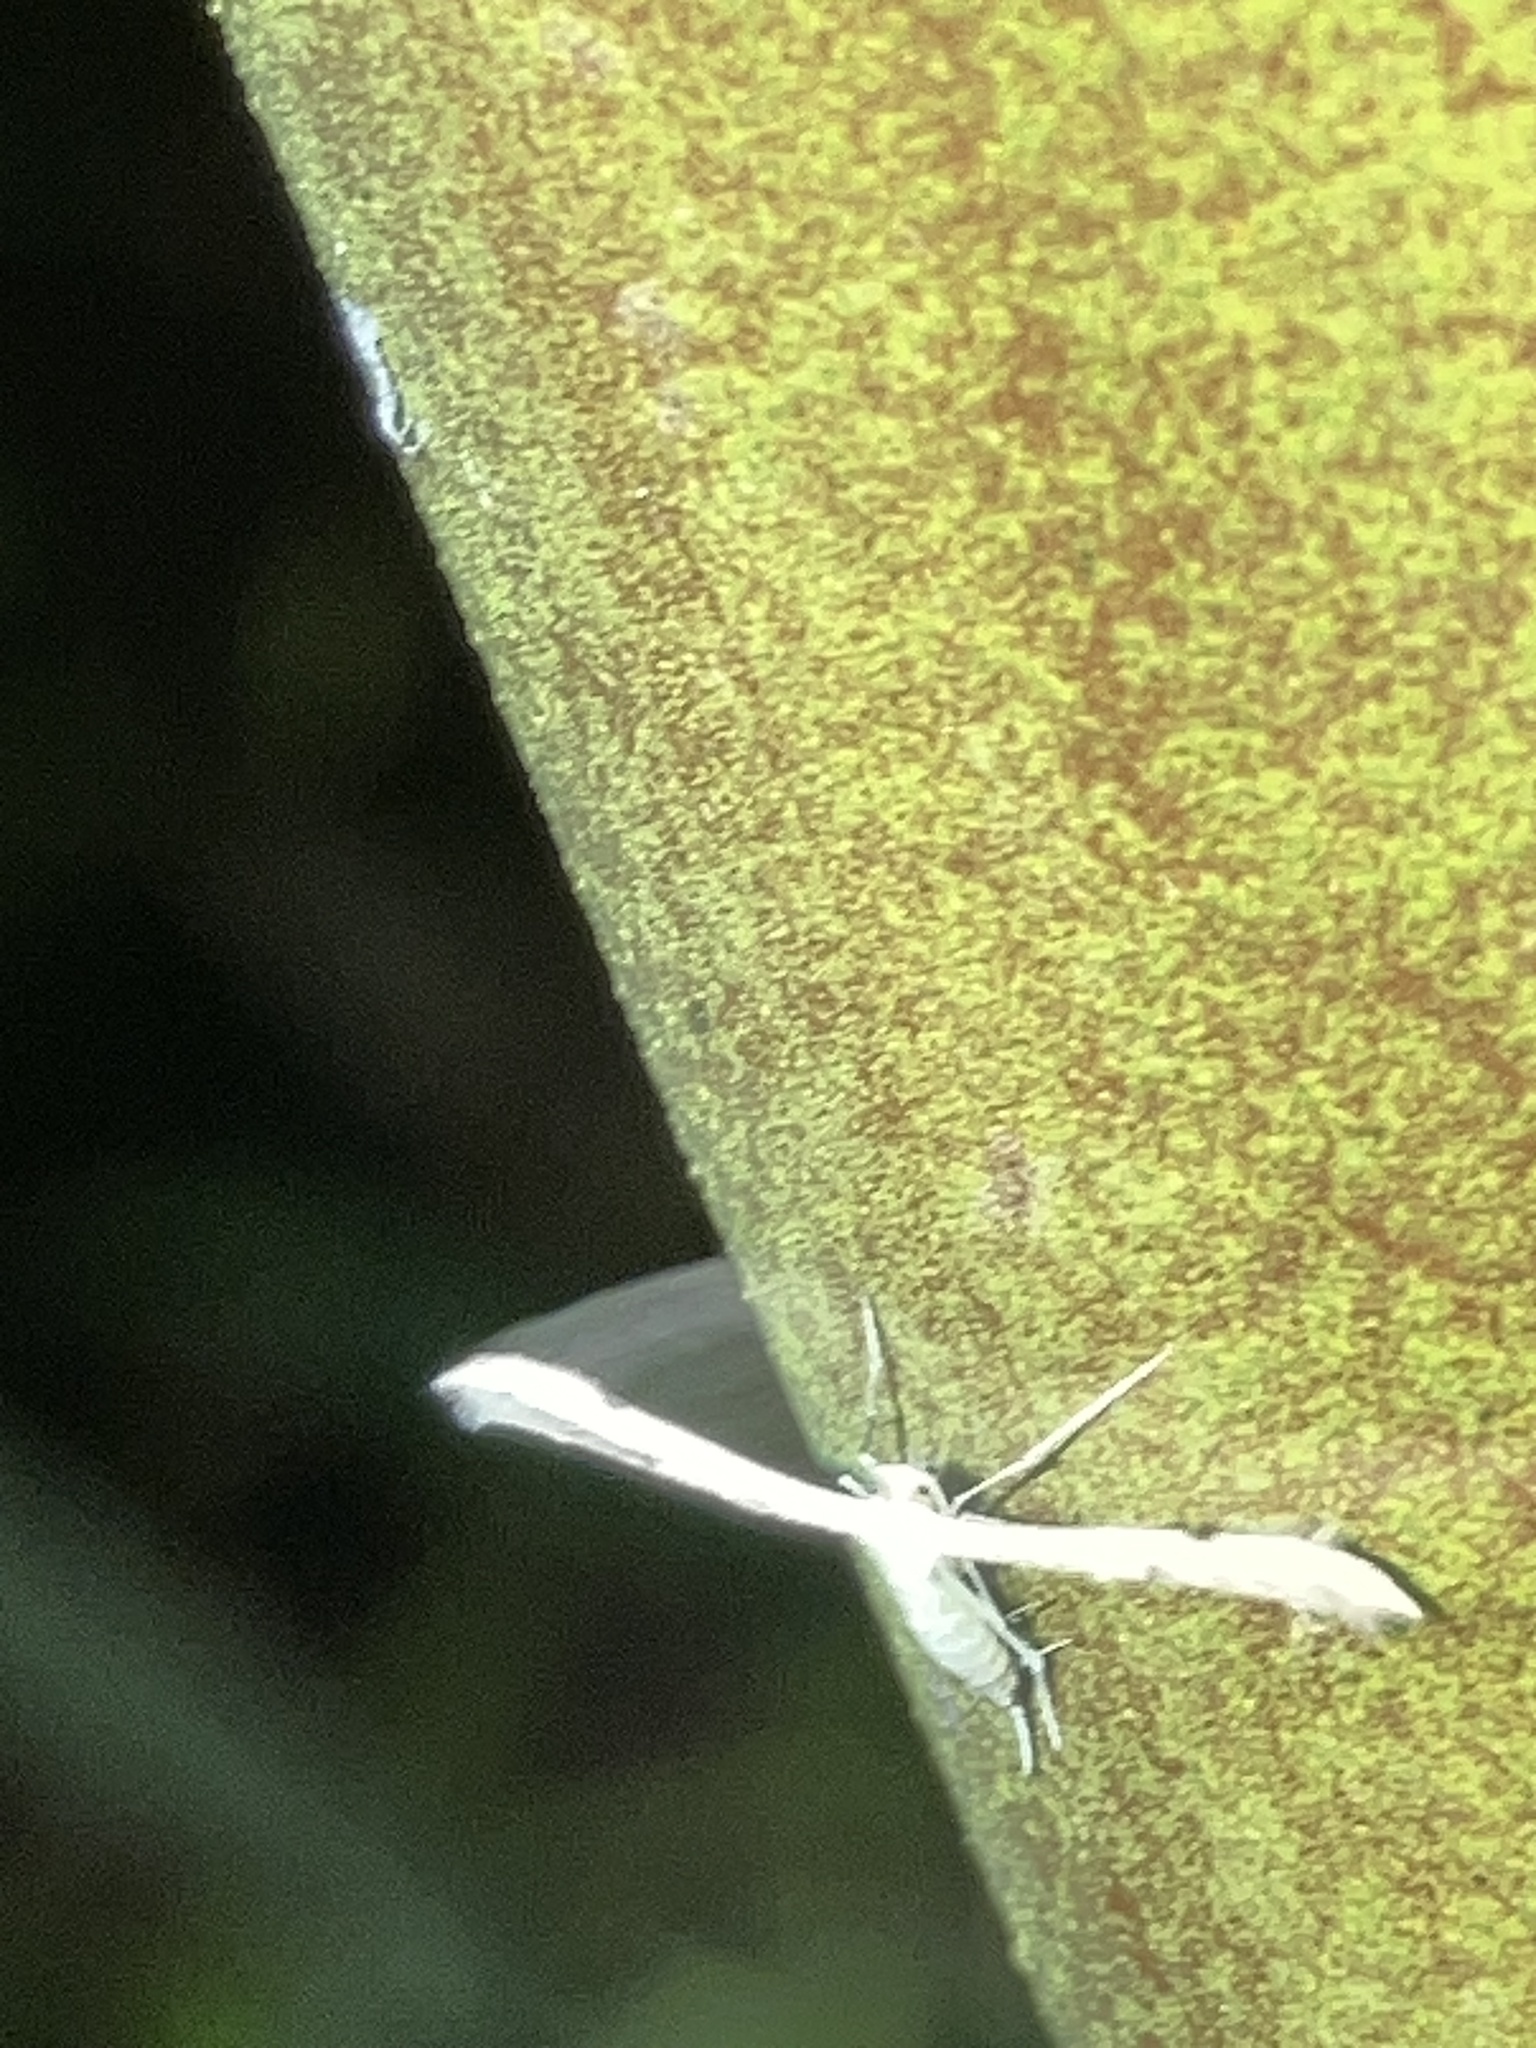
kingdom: Animalia
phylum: Arthropoda
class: Insecta
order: Lepidoptera
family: Pterophoridae
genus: Adaina
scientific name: Adaina
